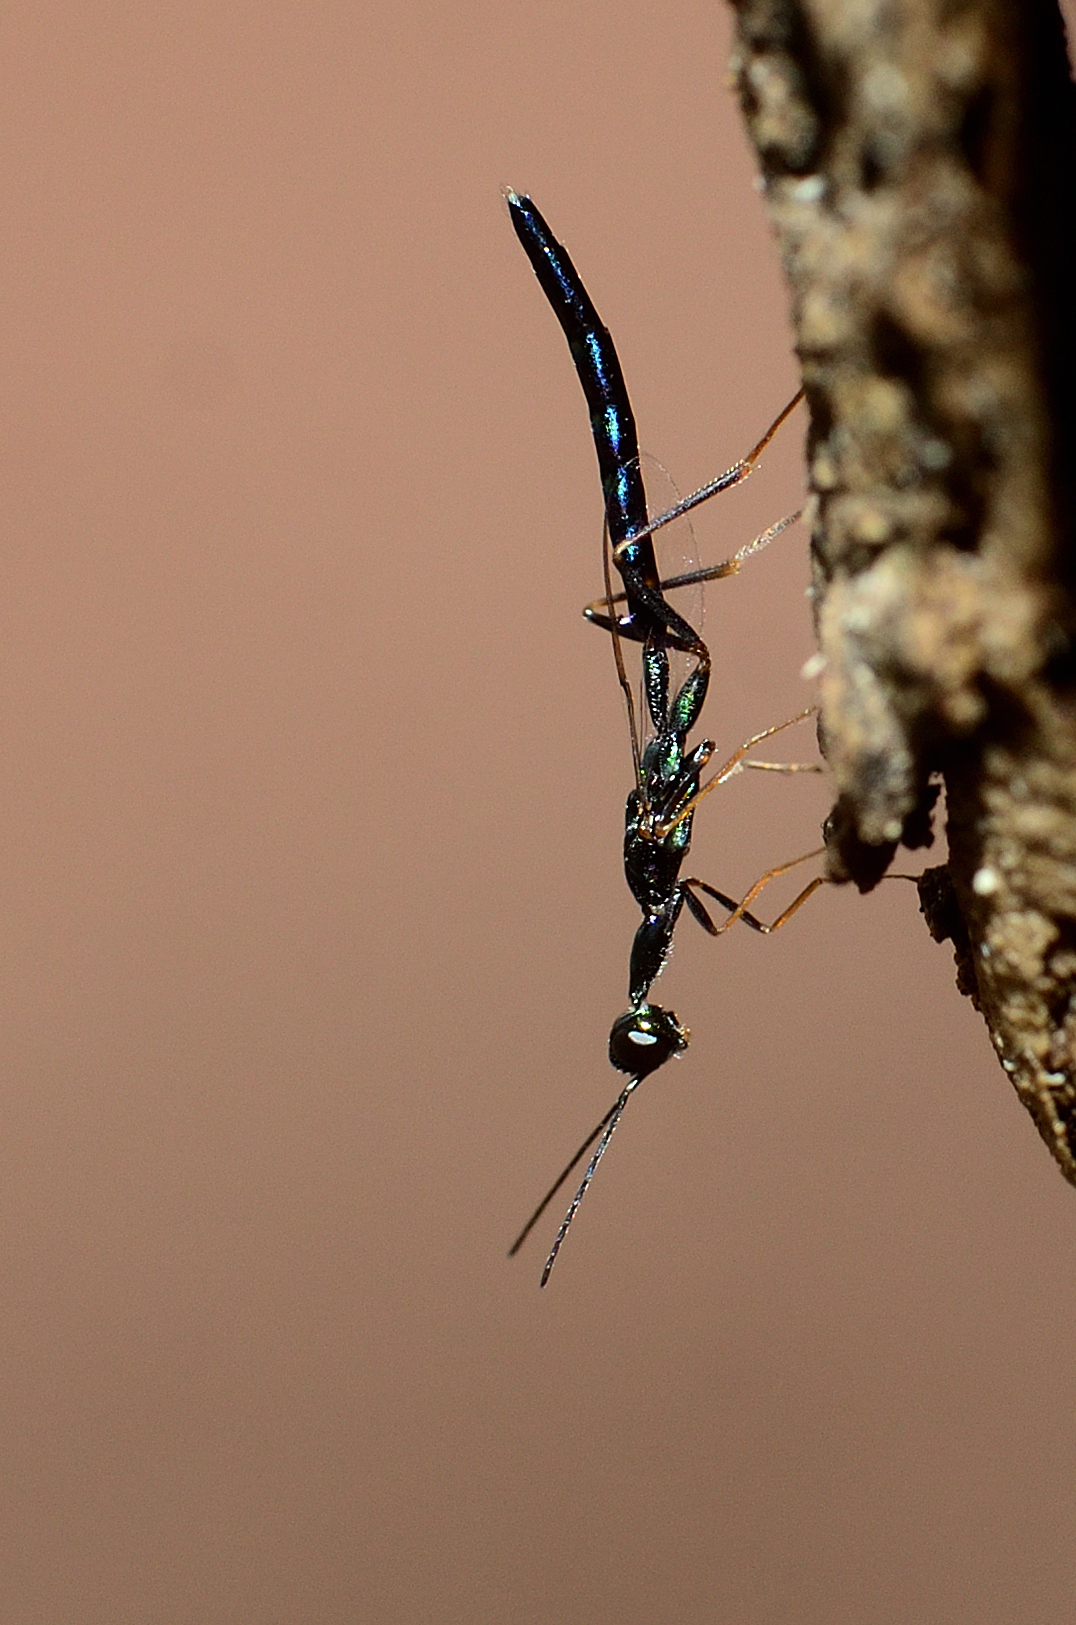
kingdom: Animalia
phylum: Arthropoda
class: Insecta
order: Hymenoptera
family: Pteromalidae
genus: Doddifoenus
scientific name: Doddifoenus
